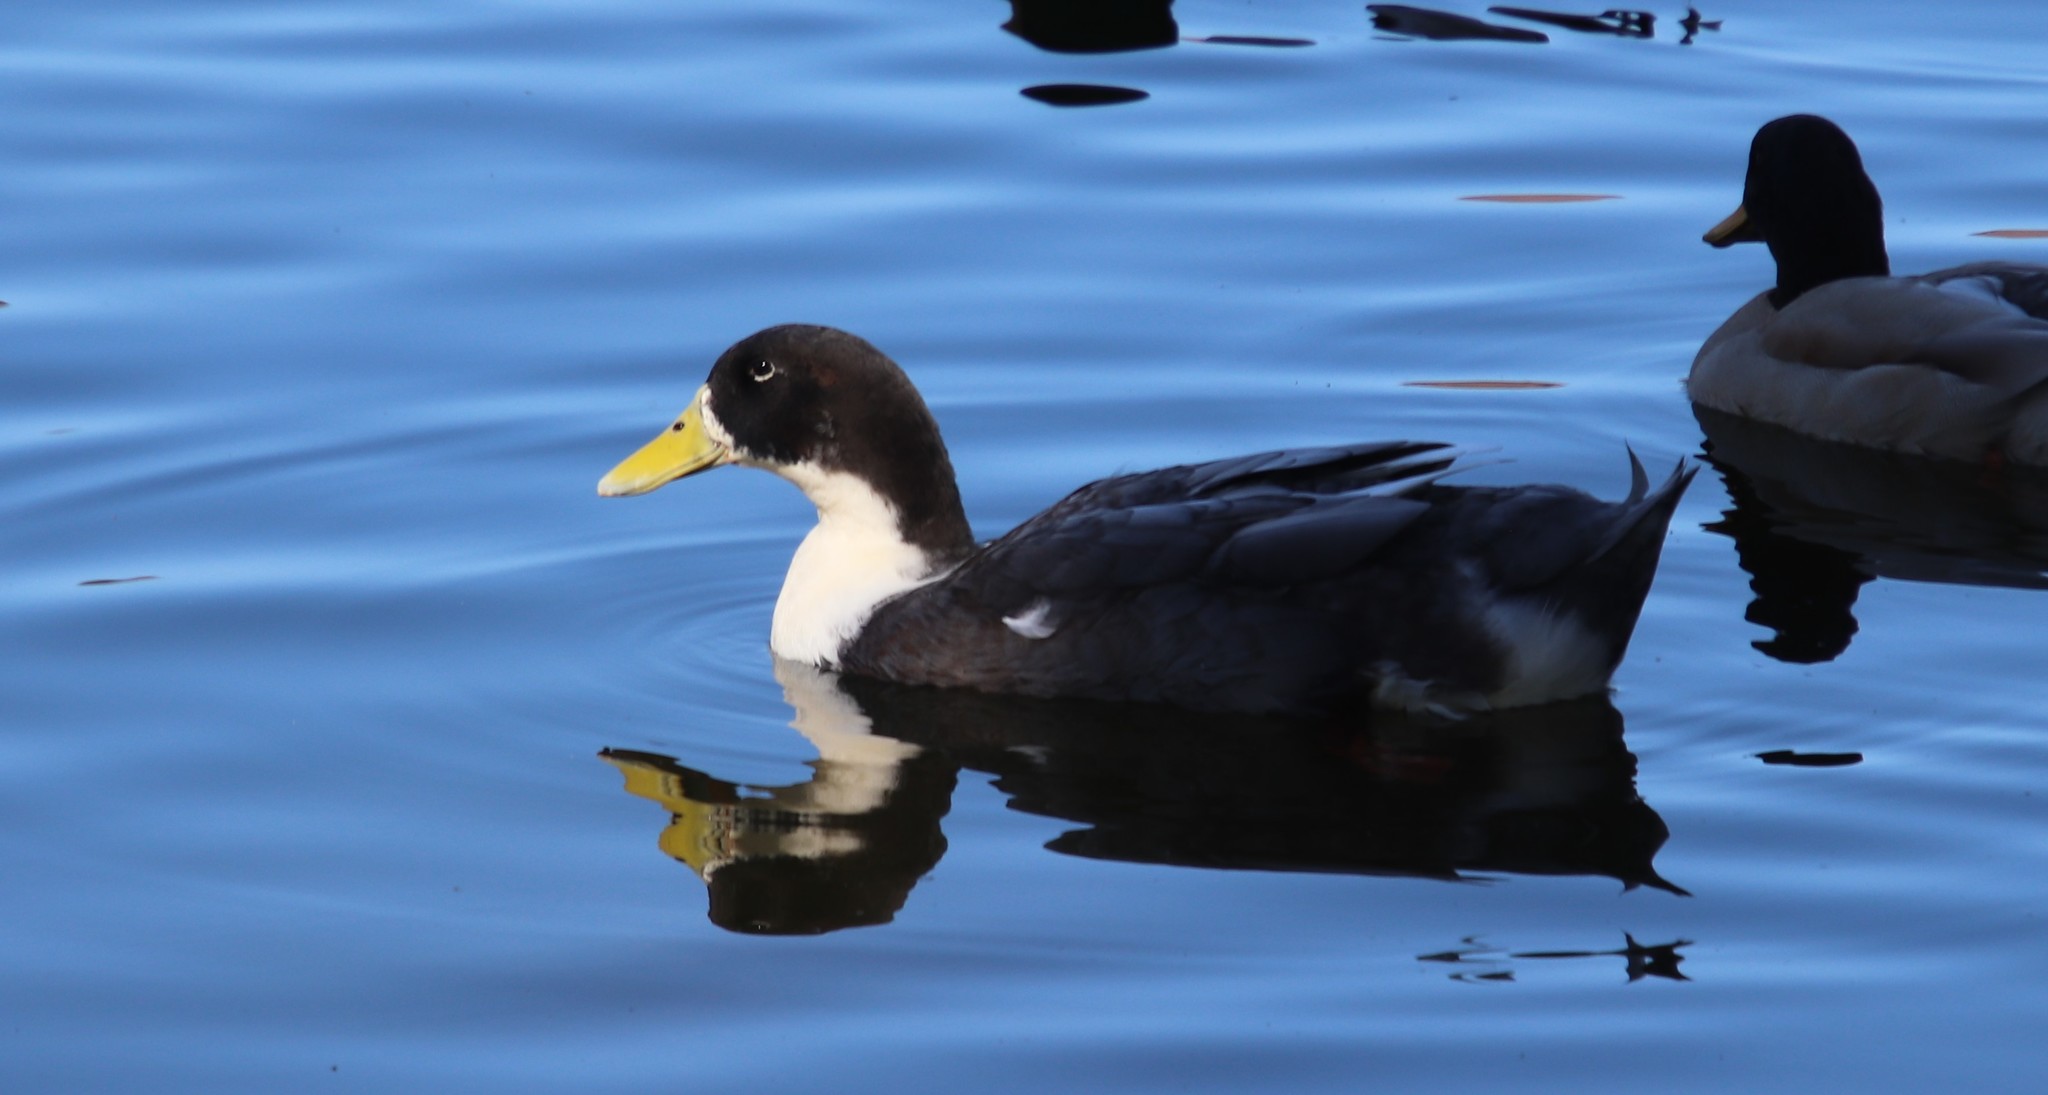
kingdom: Animalia
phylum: Chordata
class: Aves
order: Anseriformes
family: Anatidae
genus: Anas
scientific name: Anas platyrhynchos
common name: Mallard
